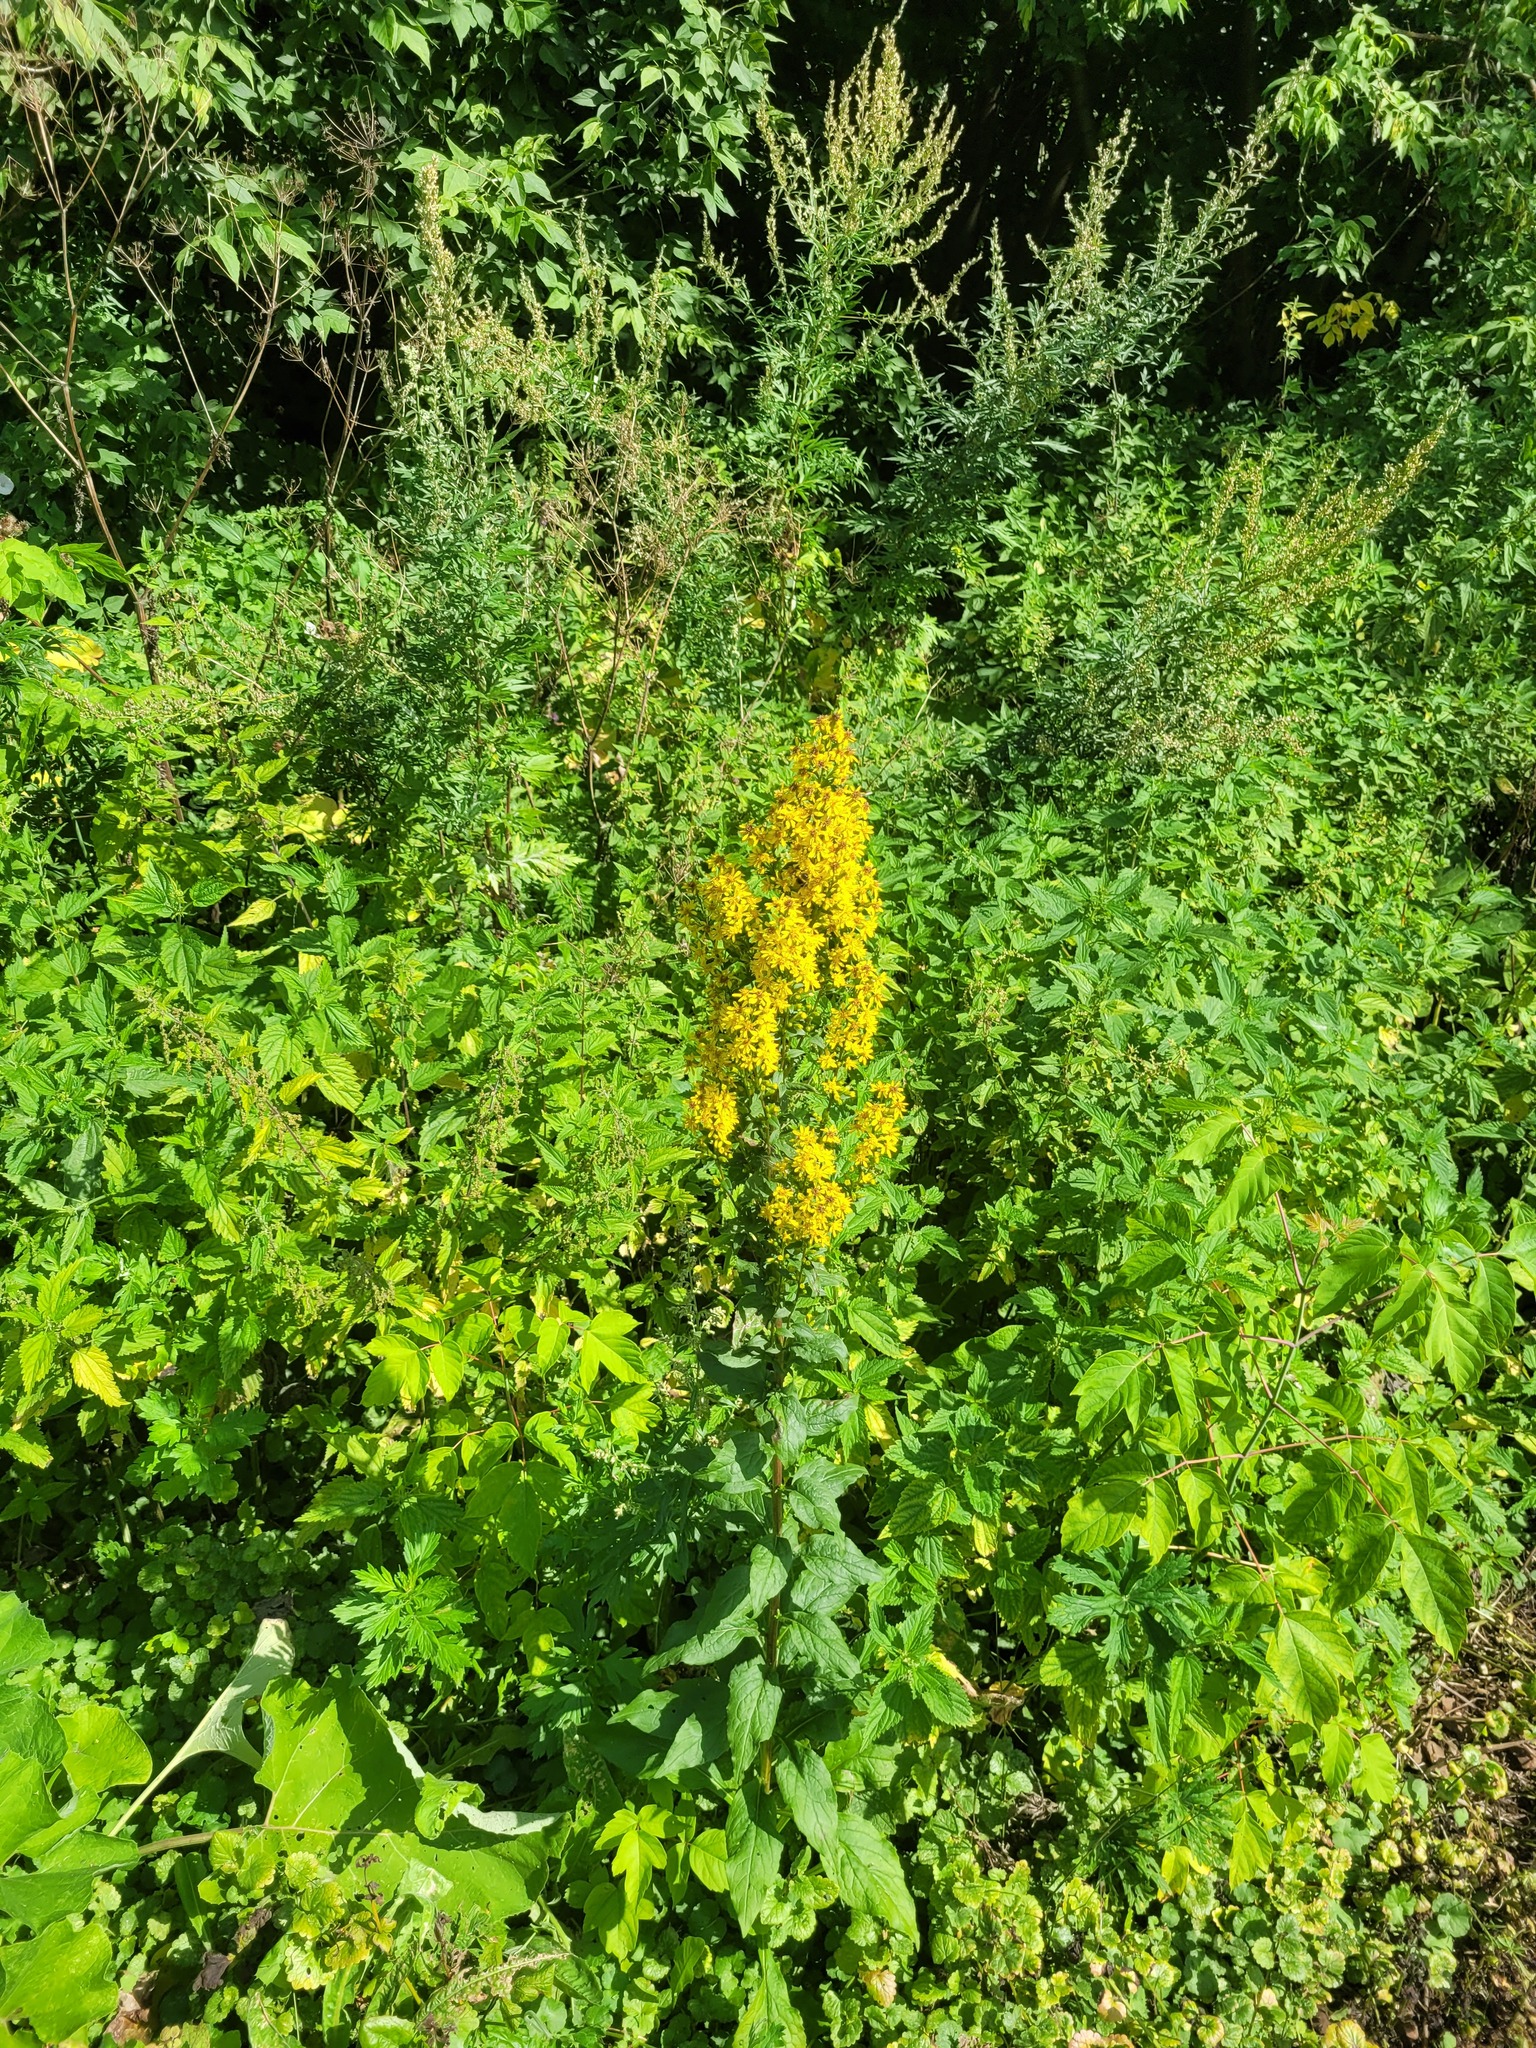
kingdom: Plantae
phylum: Tracheophyta
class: Magnoliopsida
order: Asterales
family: Asteraceae
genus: Solidago
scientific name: Solidago virgaurea
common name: Goldenrod
